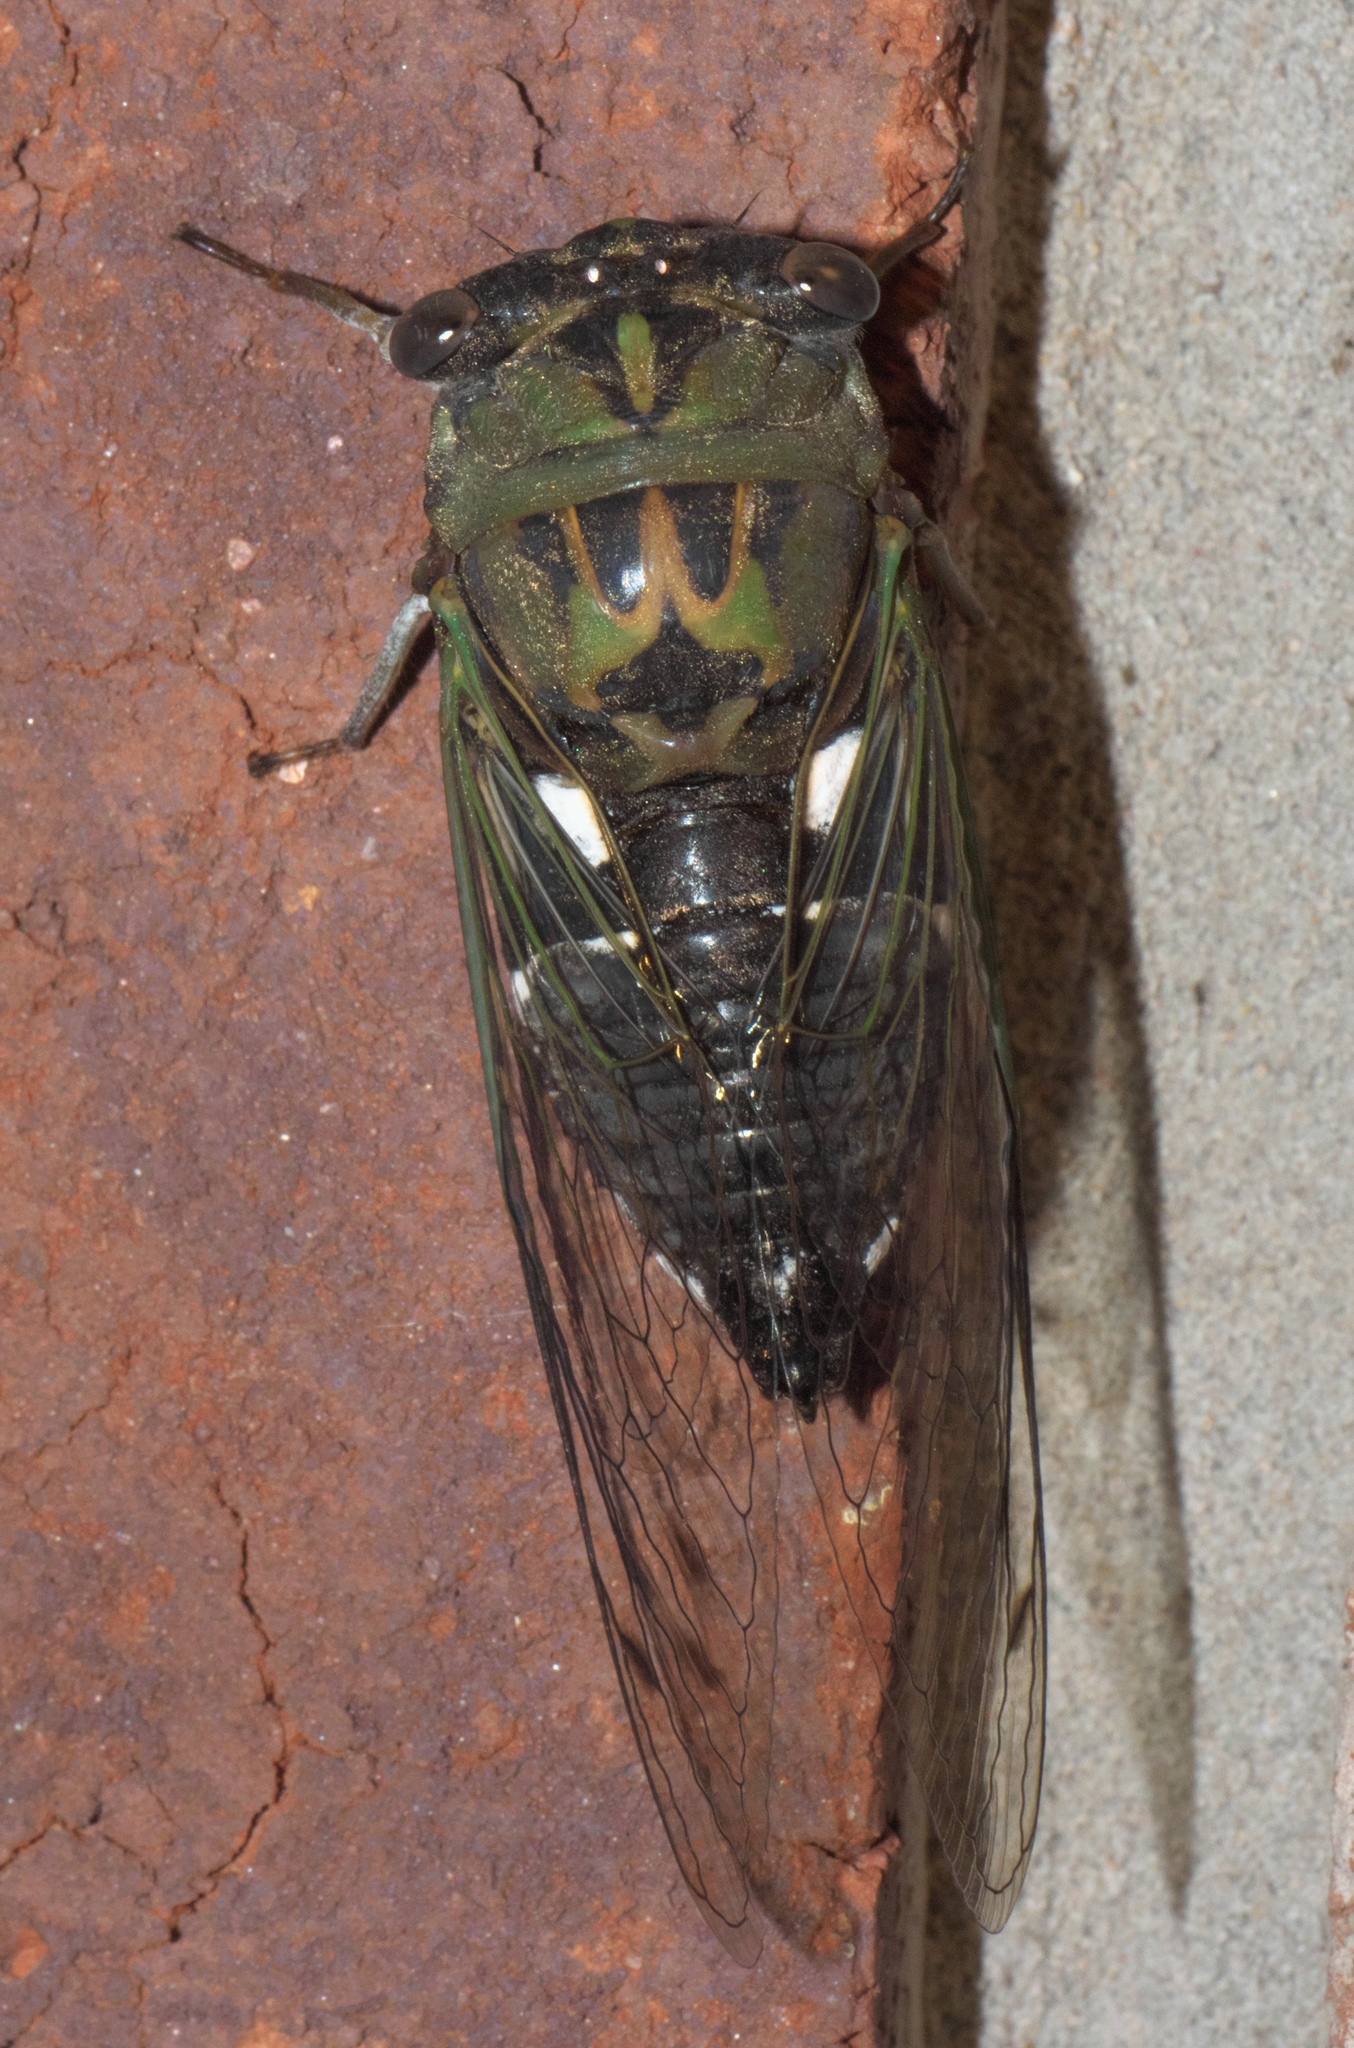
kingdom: Animalia
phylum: Arthropoda
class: Insecta
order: Hemiptera
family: Cicadidae
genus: Neotibicen
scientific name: Neotibicen pruinosus
